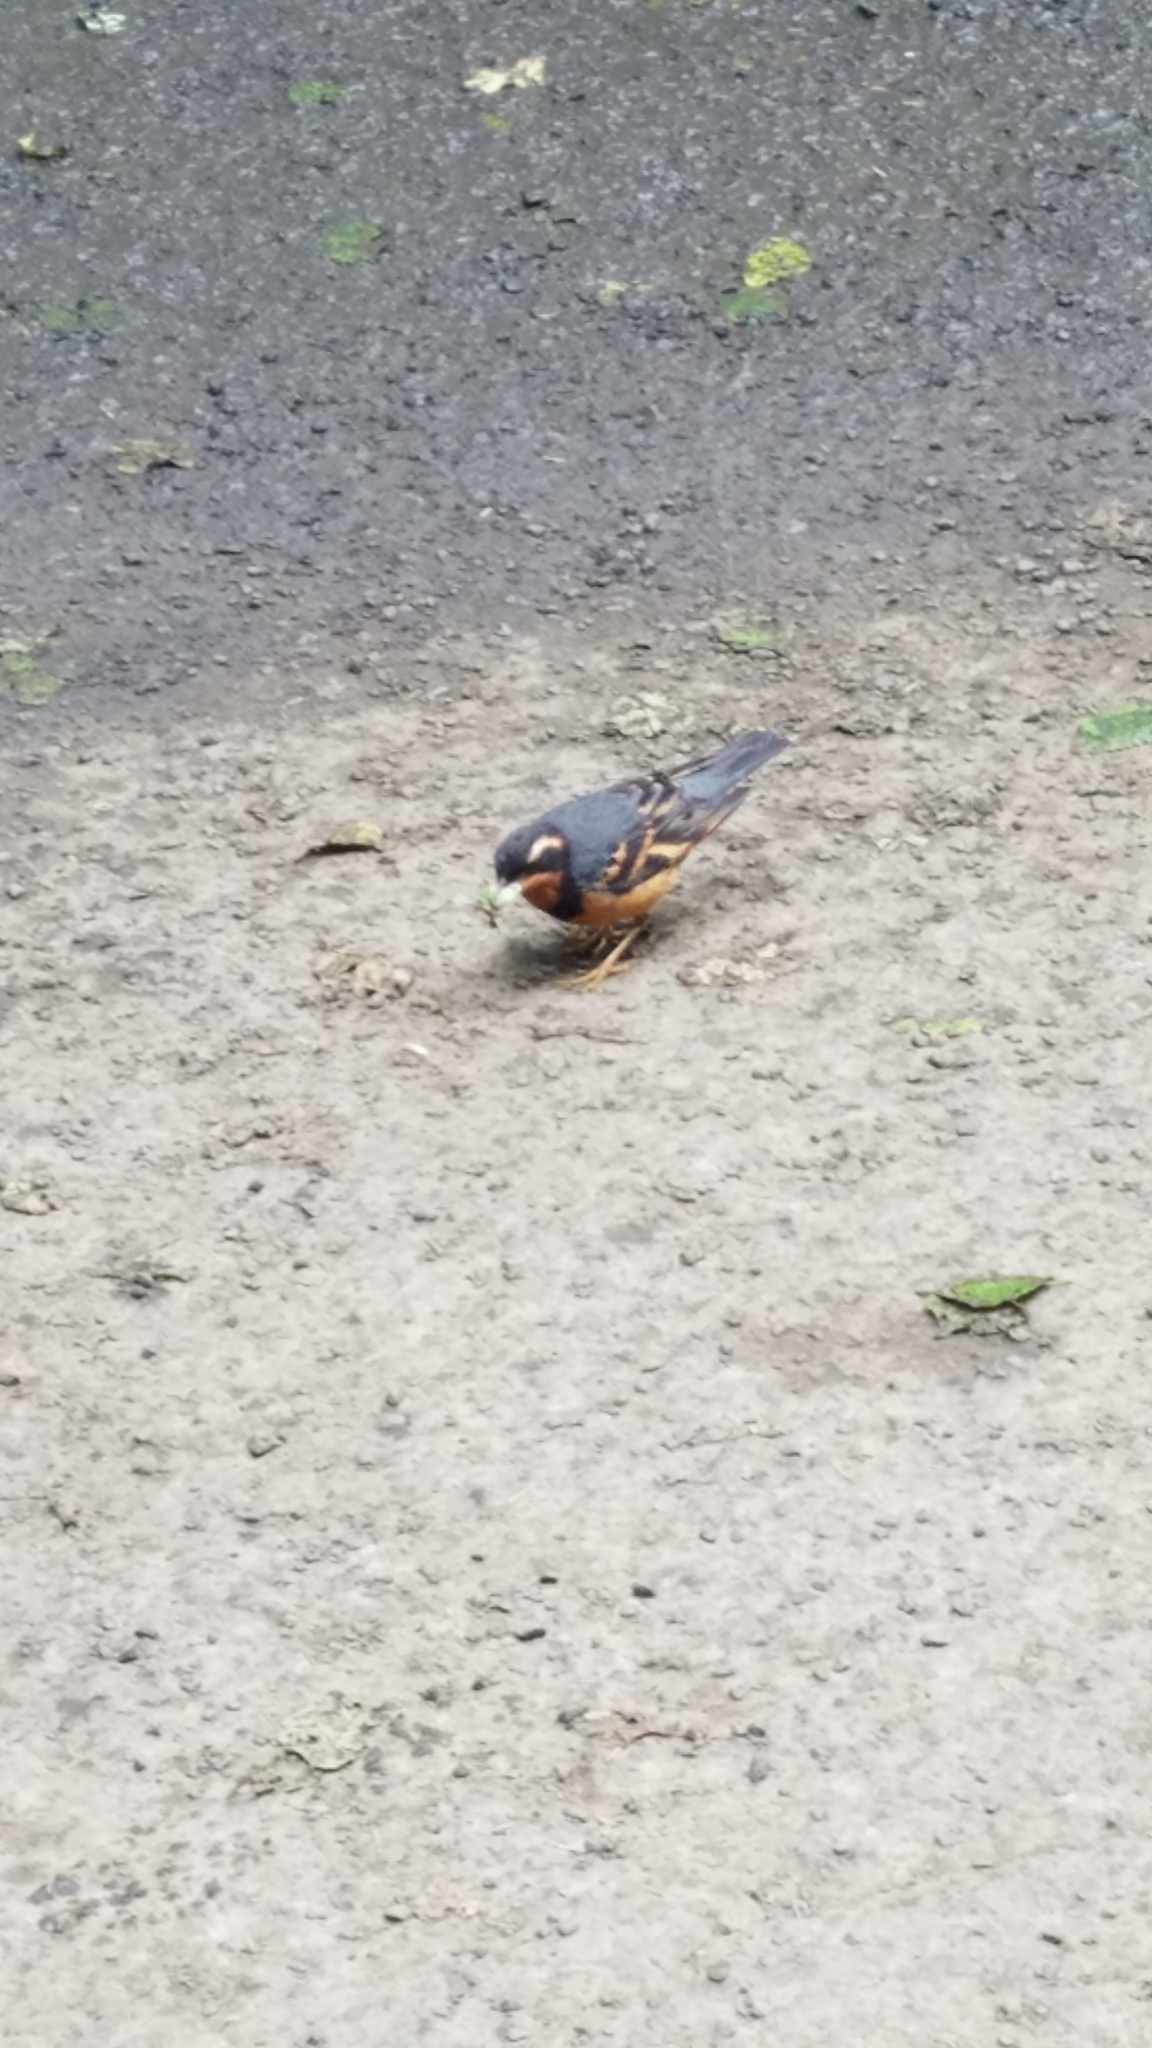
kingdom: Animalia
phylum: Chordata
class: Aves
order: Passeriformes
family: Turdidae
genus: Ixoreus
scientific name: Ixoreus naevius
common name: Varied thrush
